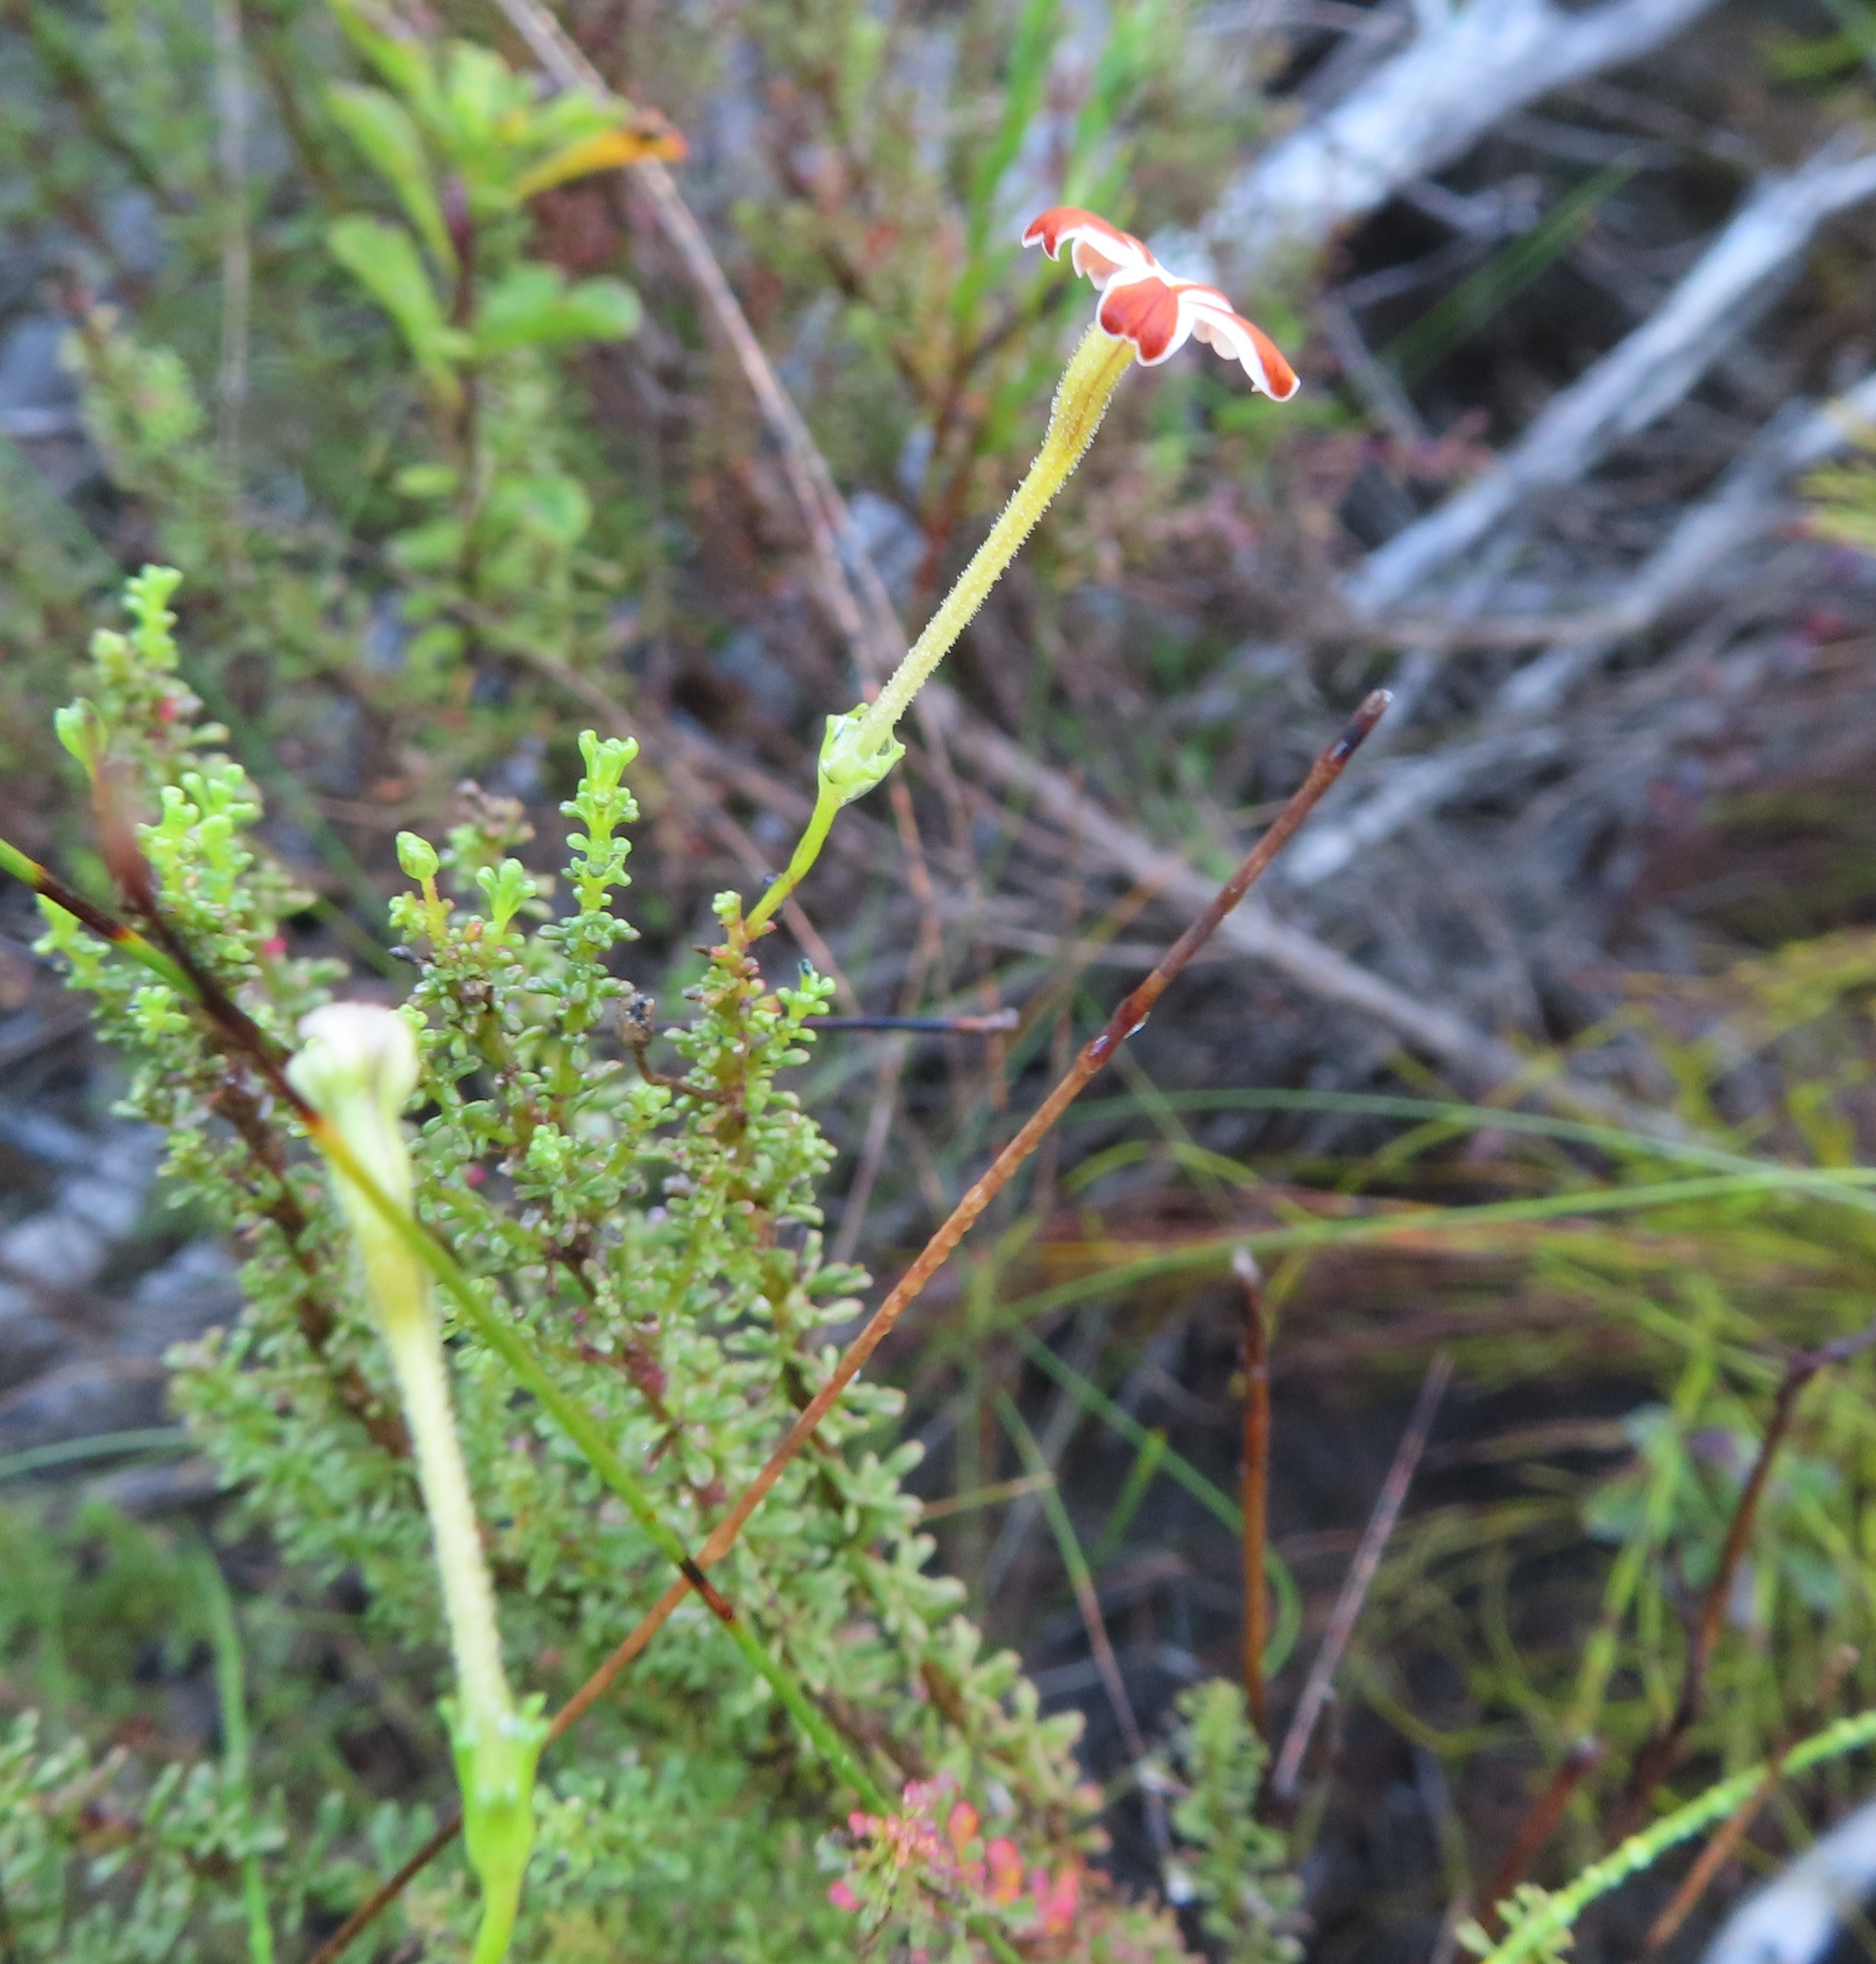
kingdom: Plantae
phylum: Tracheophyta
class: Magnoliopsida
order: Lamiales
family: Scrophulariaceae
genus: Jamesbrittenia
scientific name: Jamesbrittenia albomarginata
